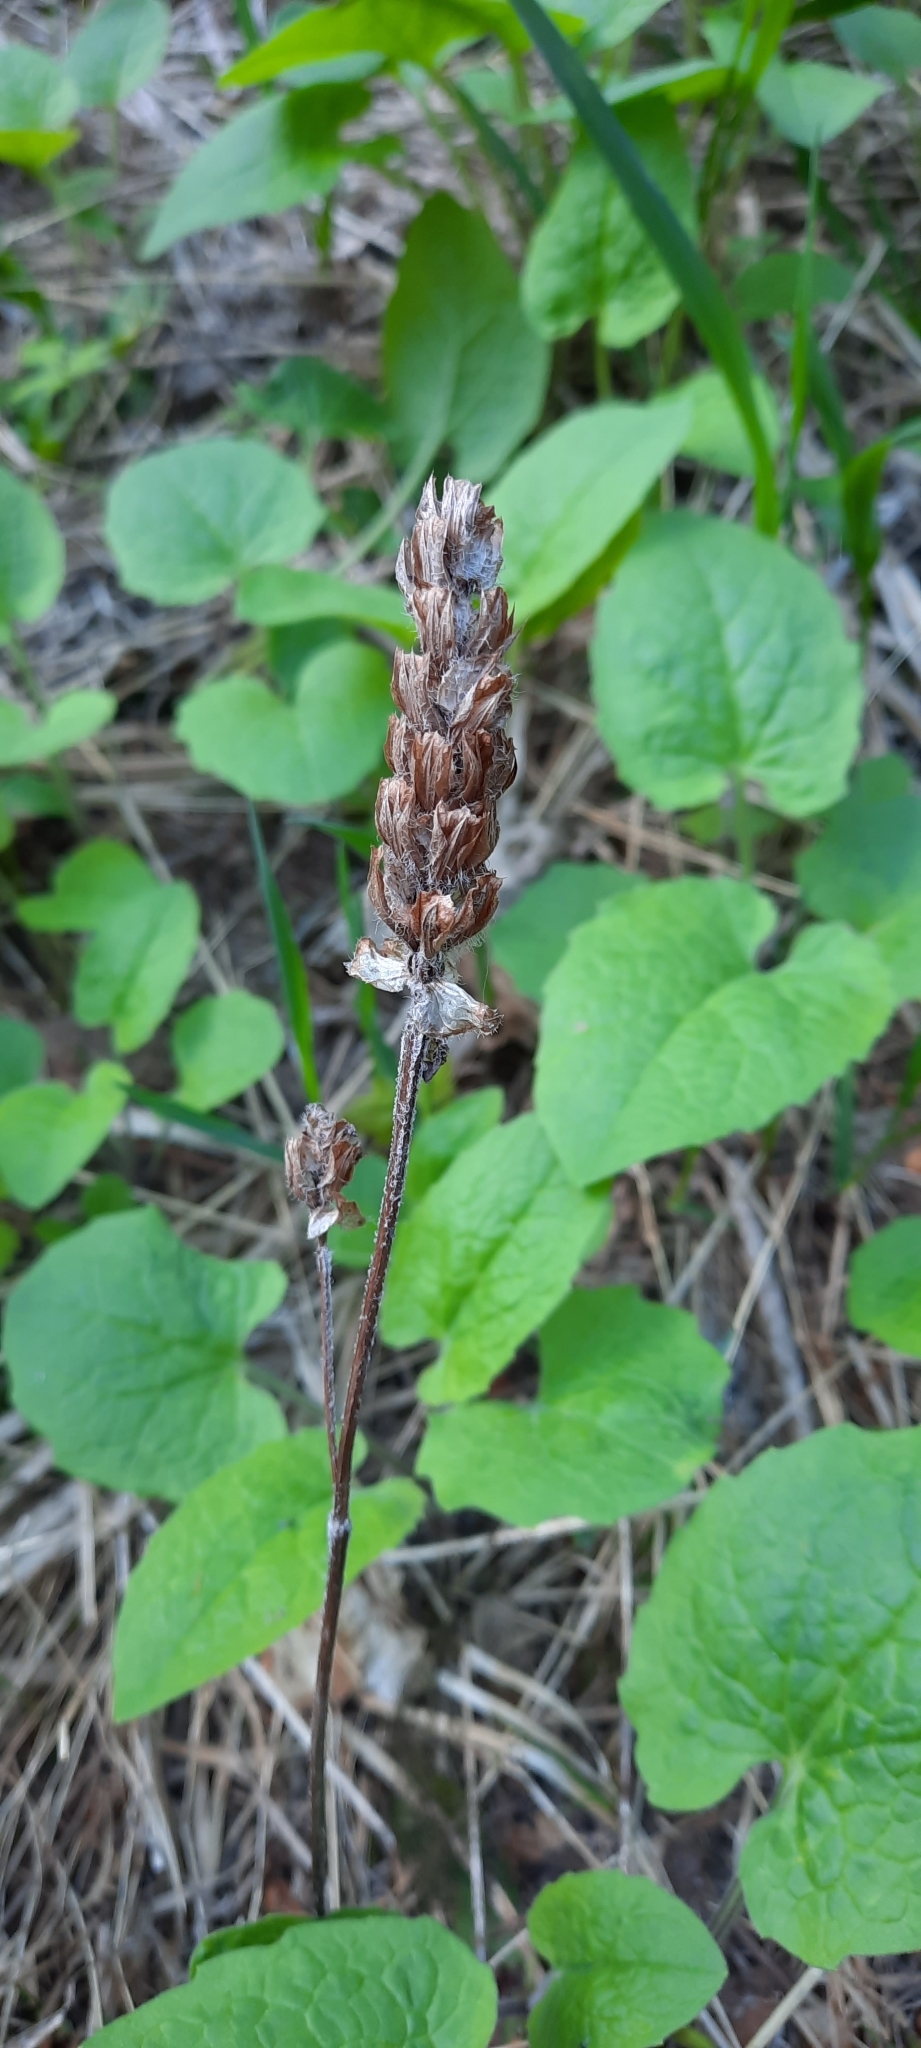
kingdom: Plantae
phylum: Tracheophyta
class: Magnoliopsida
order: Lamiales
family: Lamiaceae
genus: Prunella
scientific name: Prunella vulgaris
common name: Heal-all
